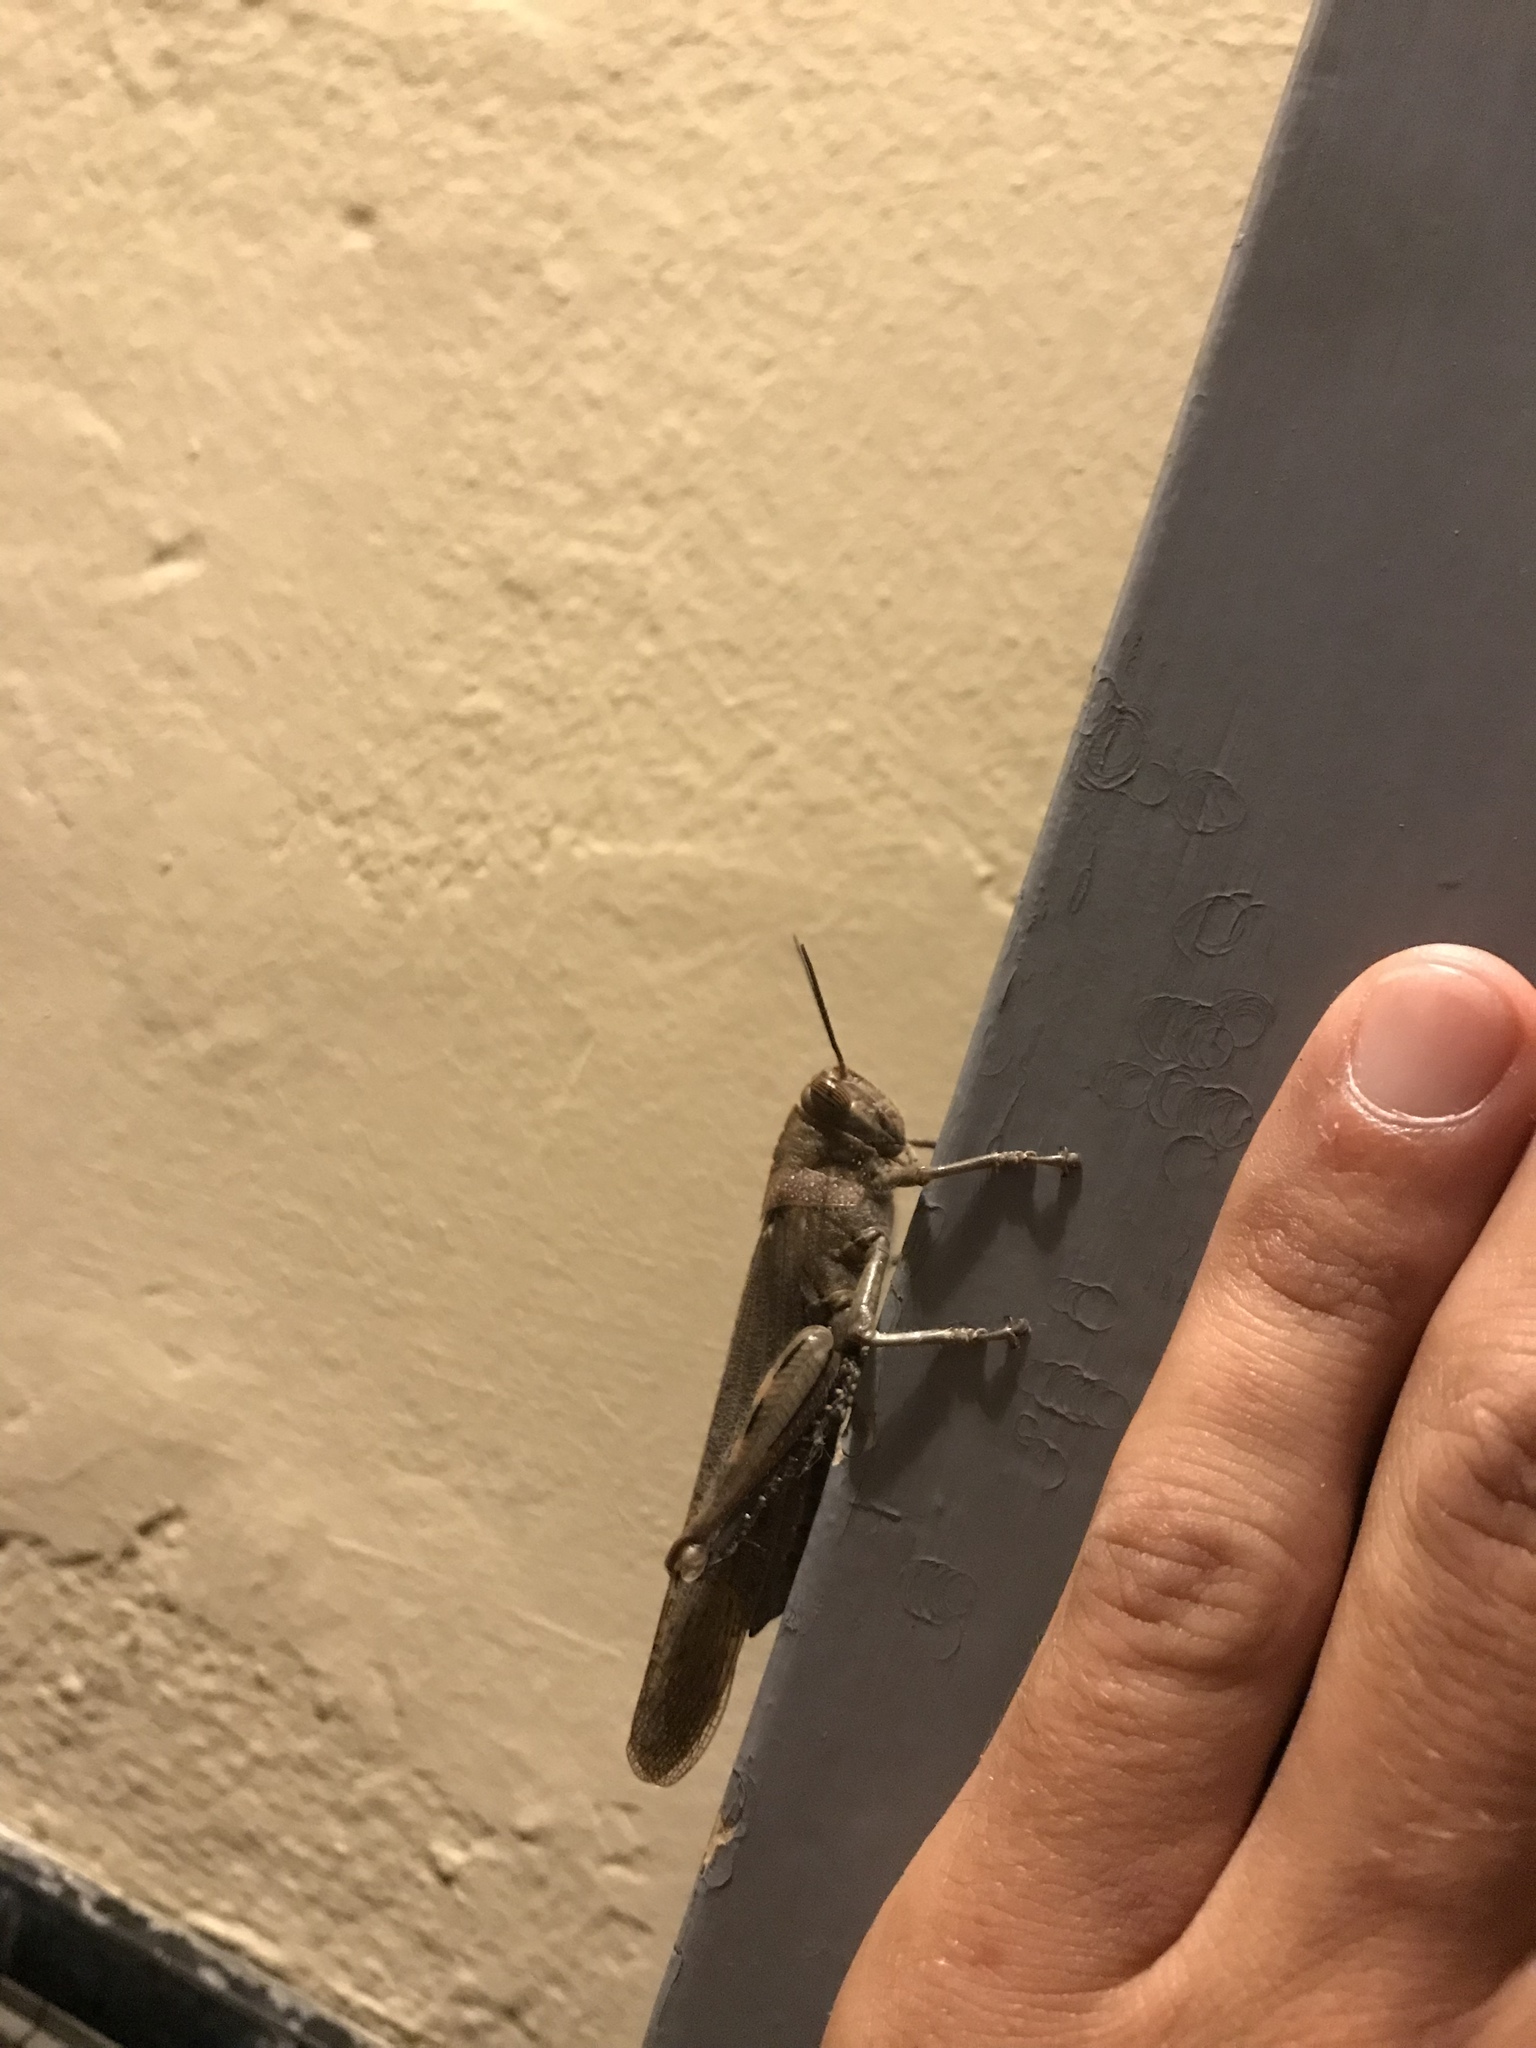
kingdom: Animalia
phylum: Arthropoda
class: Insecta
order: Orthoptera
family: Acrididae
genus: Anacridium
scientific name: Anacridium aegyptium
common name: Egyptian grasshopper
